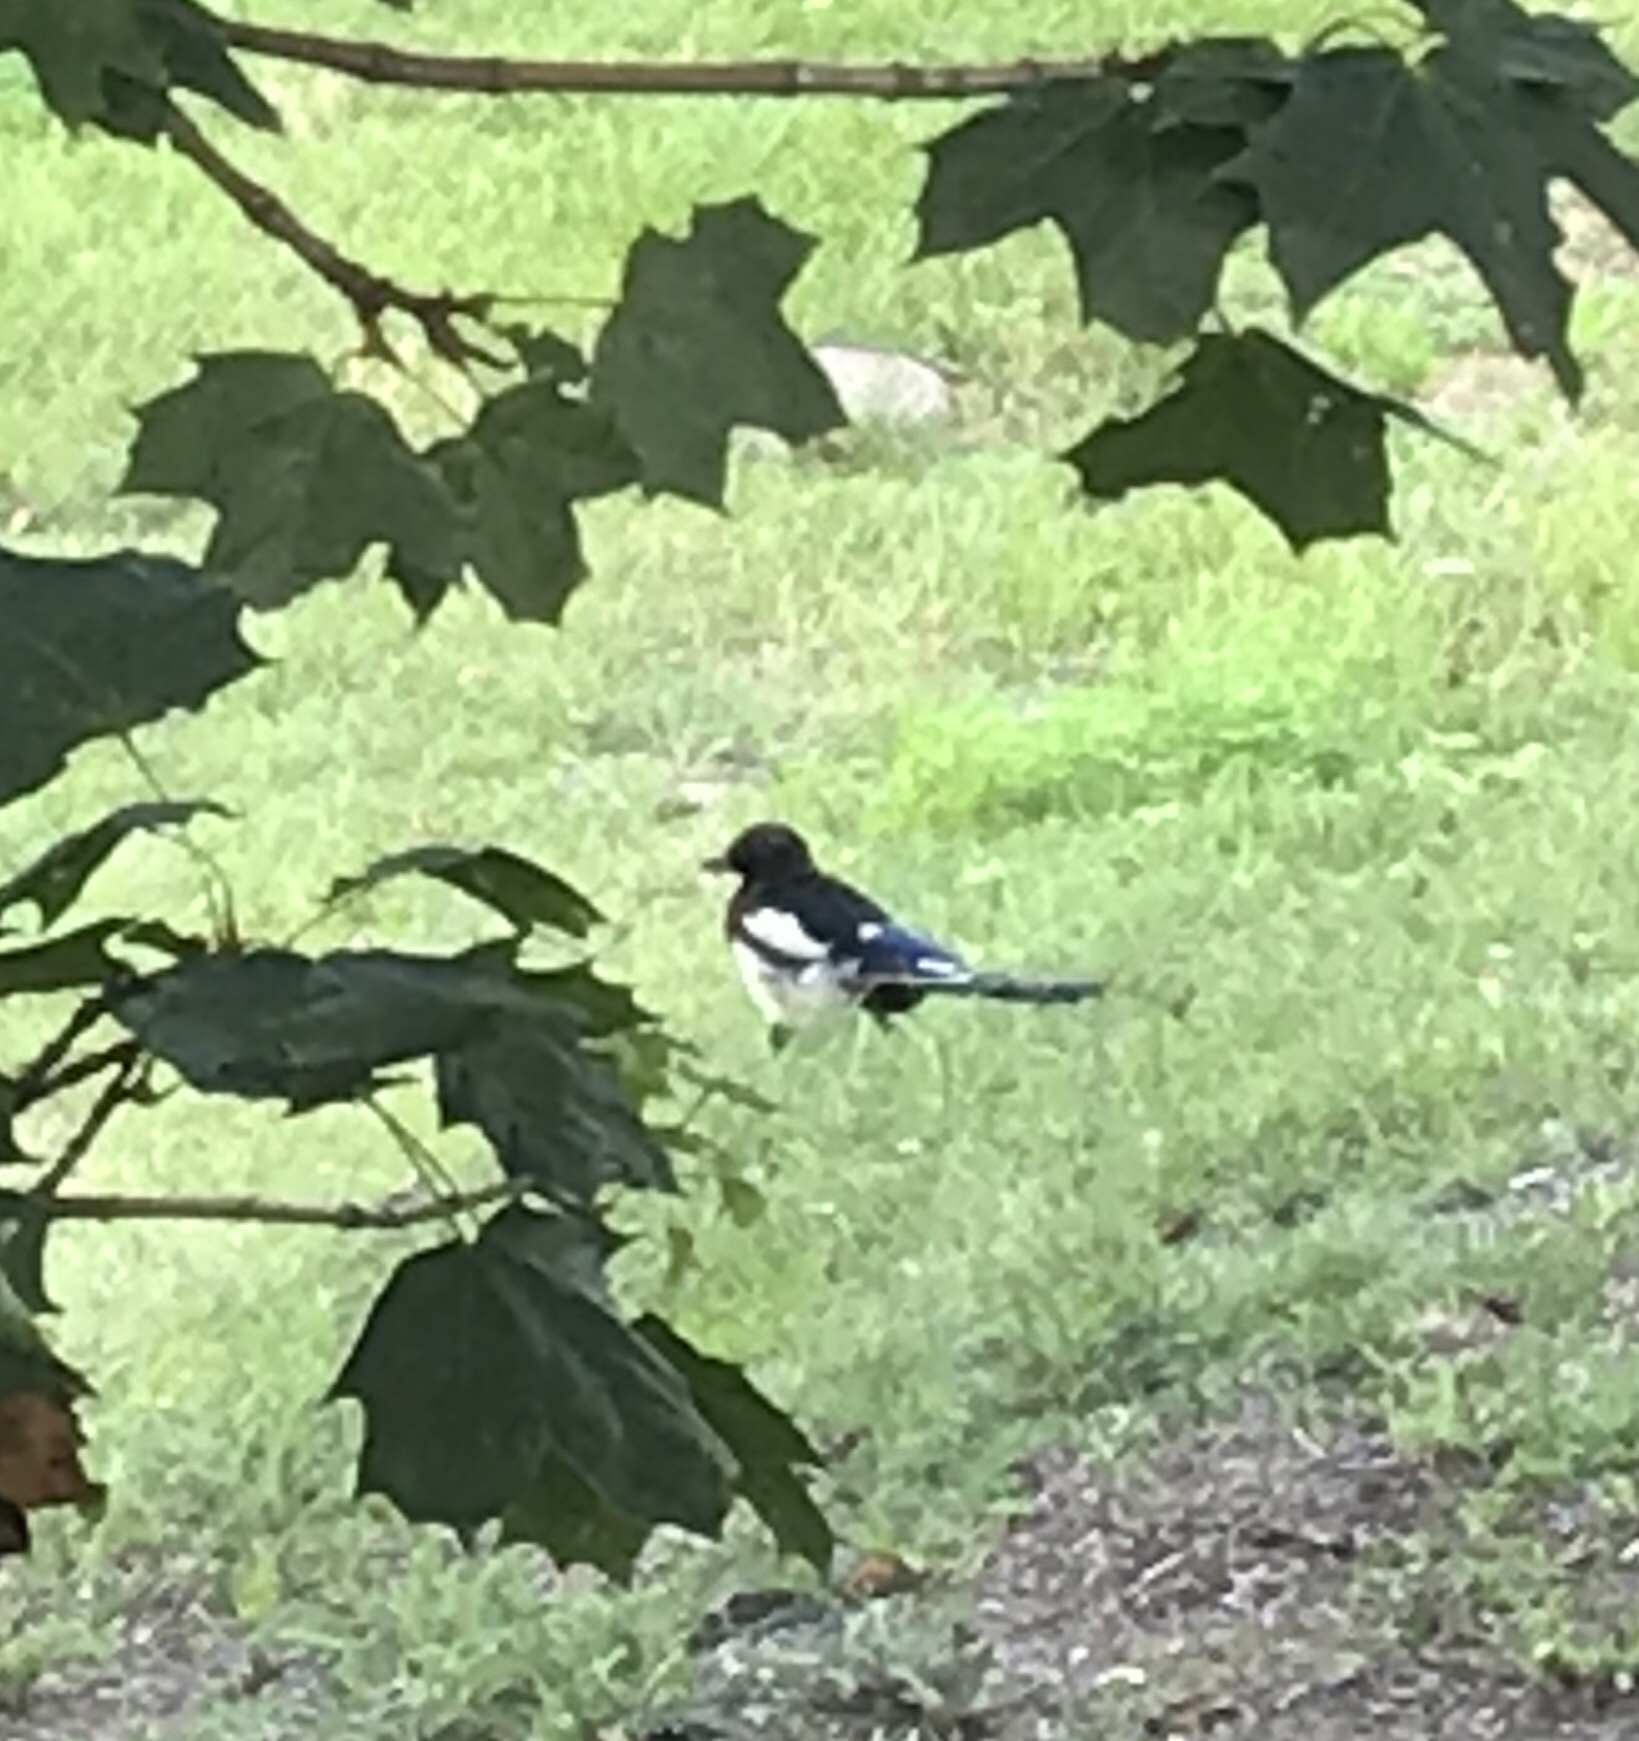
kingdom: Animalia
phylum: Chordata
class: Aves
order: Passeriformes
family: Corvidae
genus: Pica
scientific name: Pica pica
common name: Eurasian magpie
